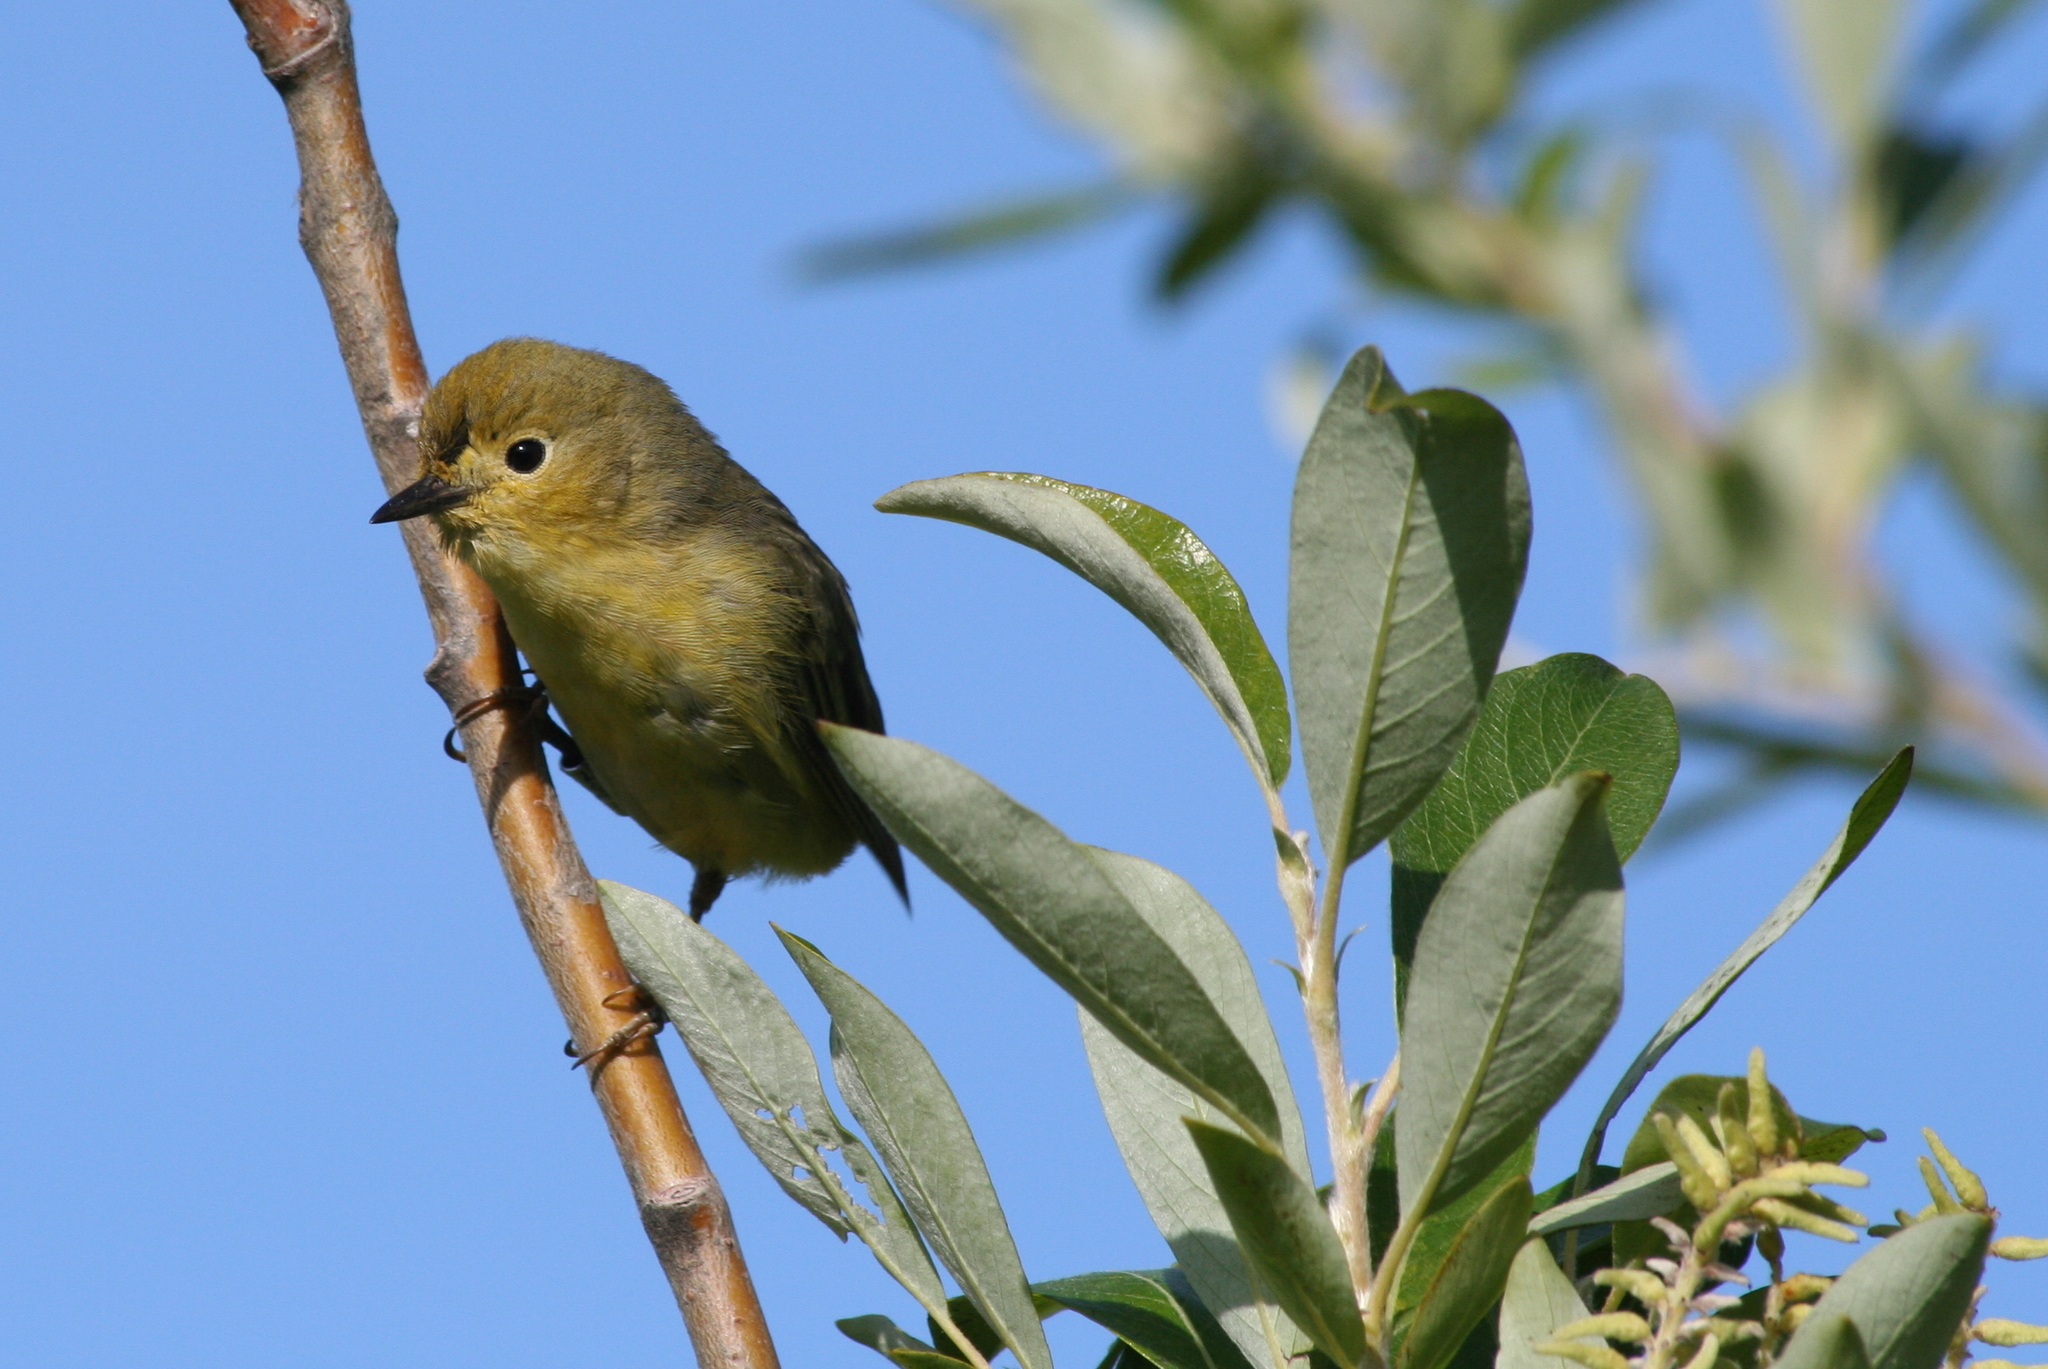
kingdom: Animalia
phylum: Chordata
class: Aves
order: Passeriformes
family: Parulidae
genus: Setophaga
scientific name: Setophaga petechia
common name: Yellow warbler
